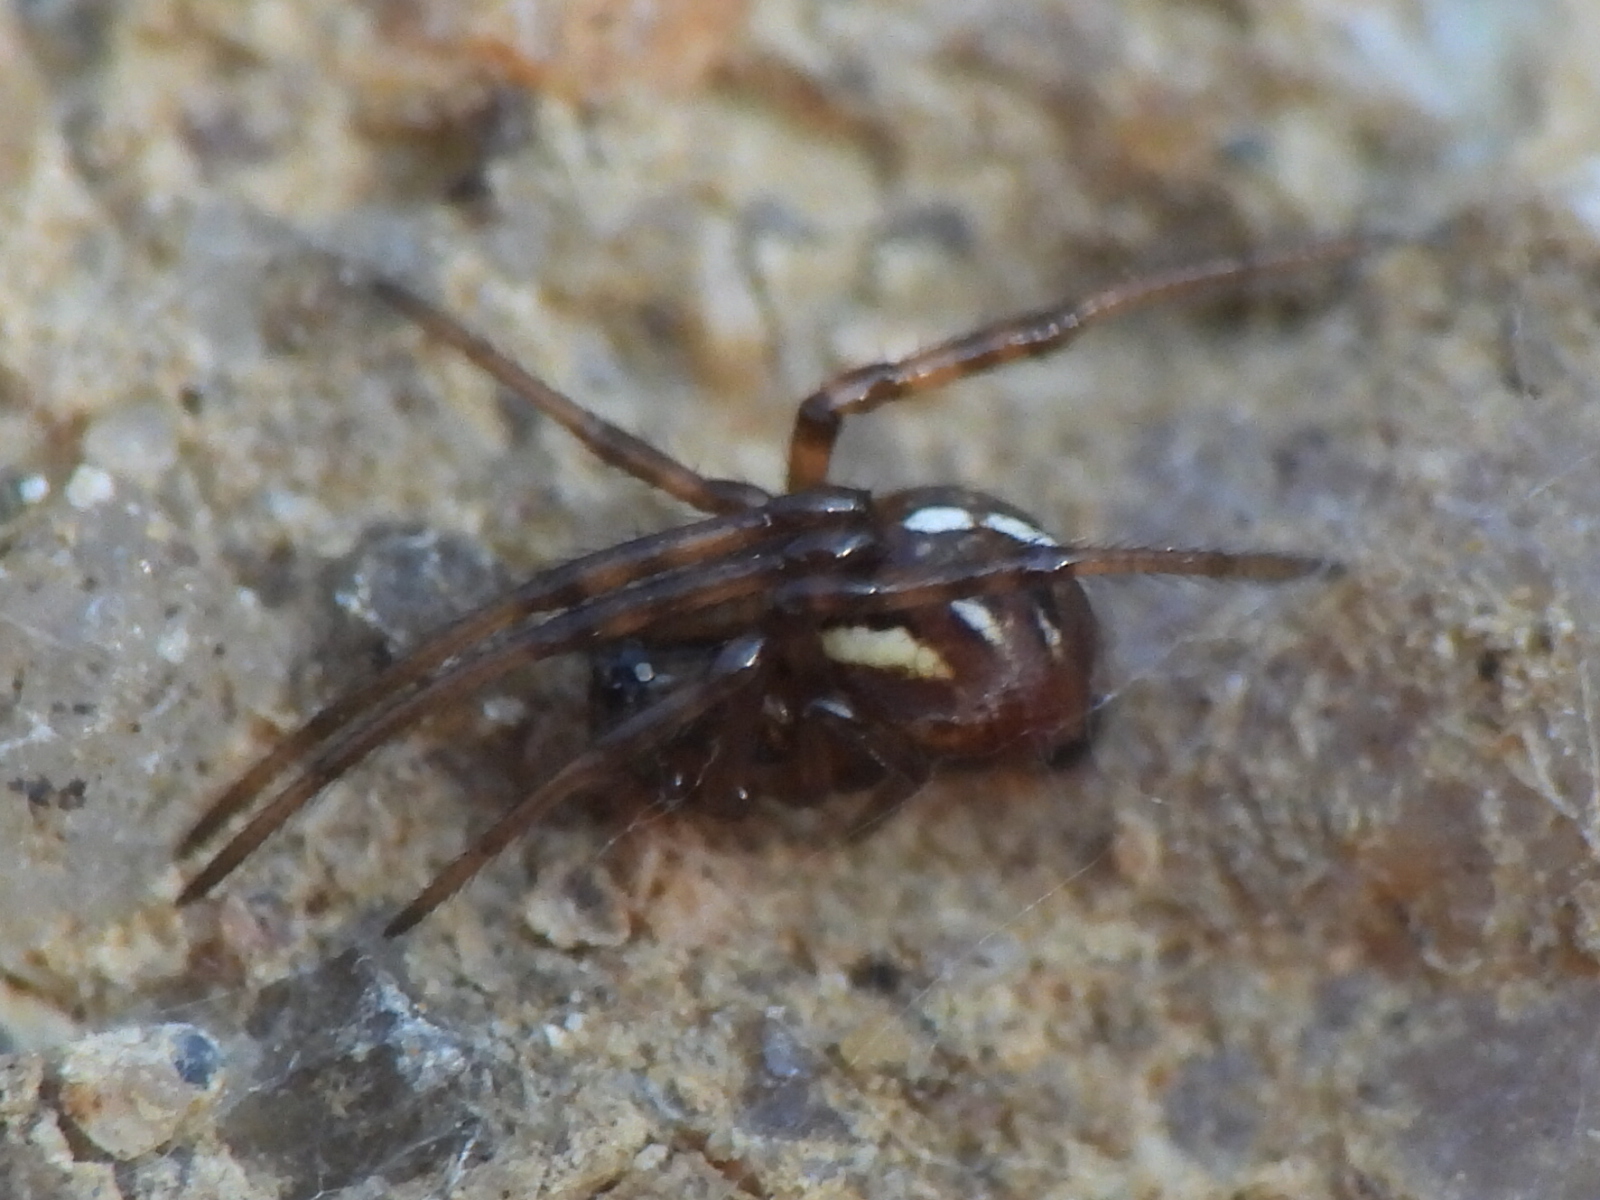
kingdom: Animalia
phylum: Arthropoda
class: Arachnida
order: Araneae
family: Theridiidae
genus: Latrodectus
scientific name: Latrodectus hesperus
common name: Western black widow
